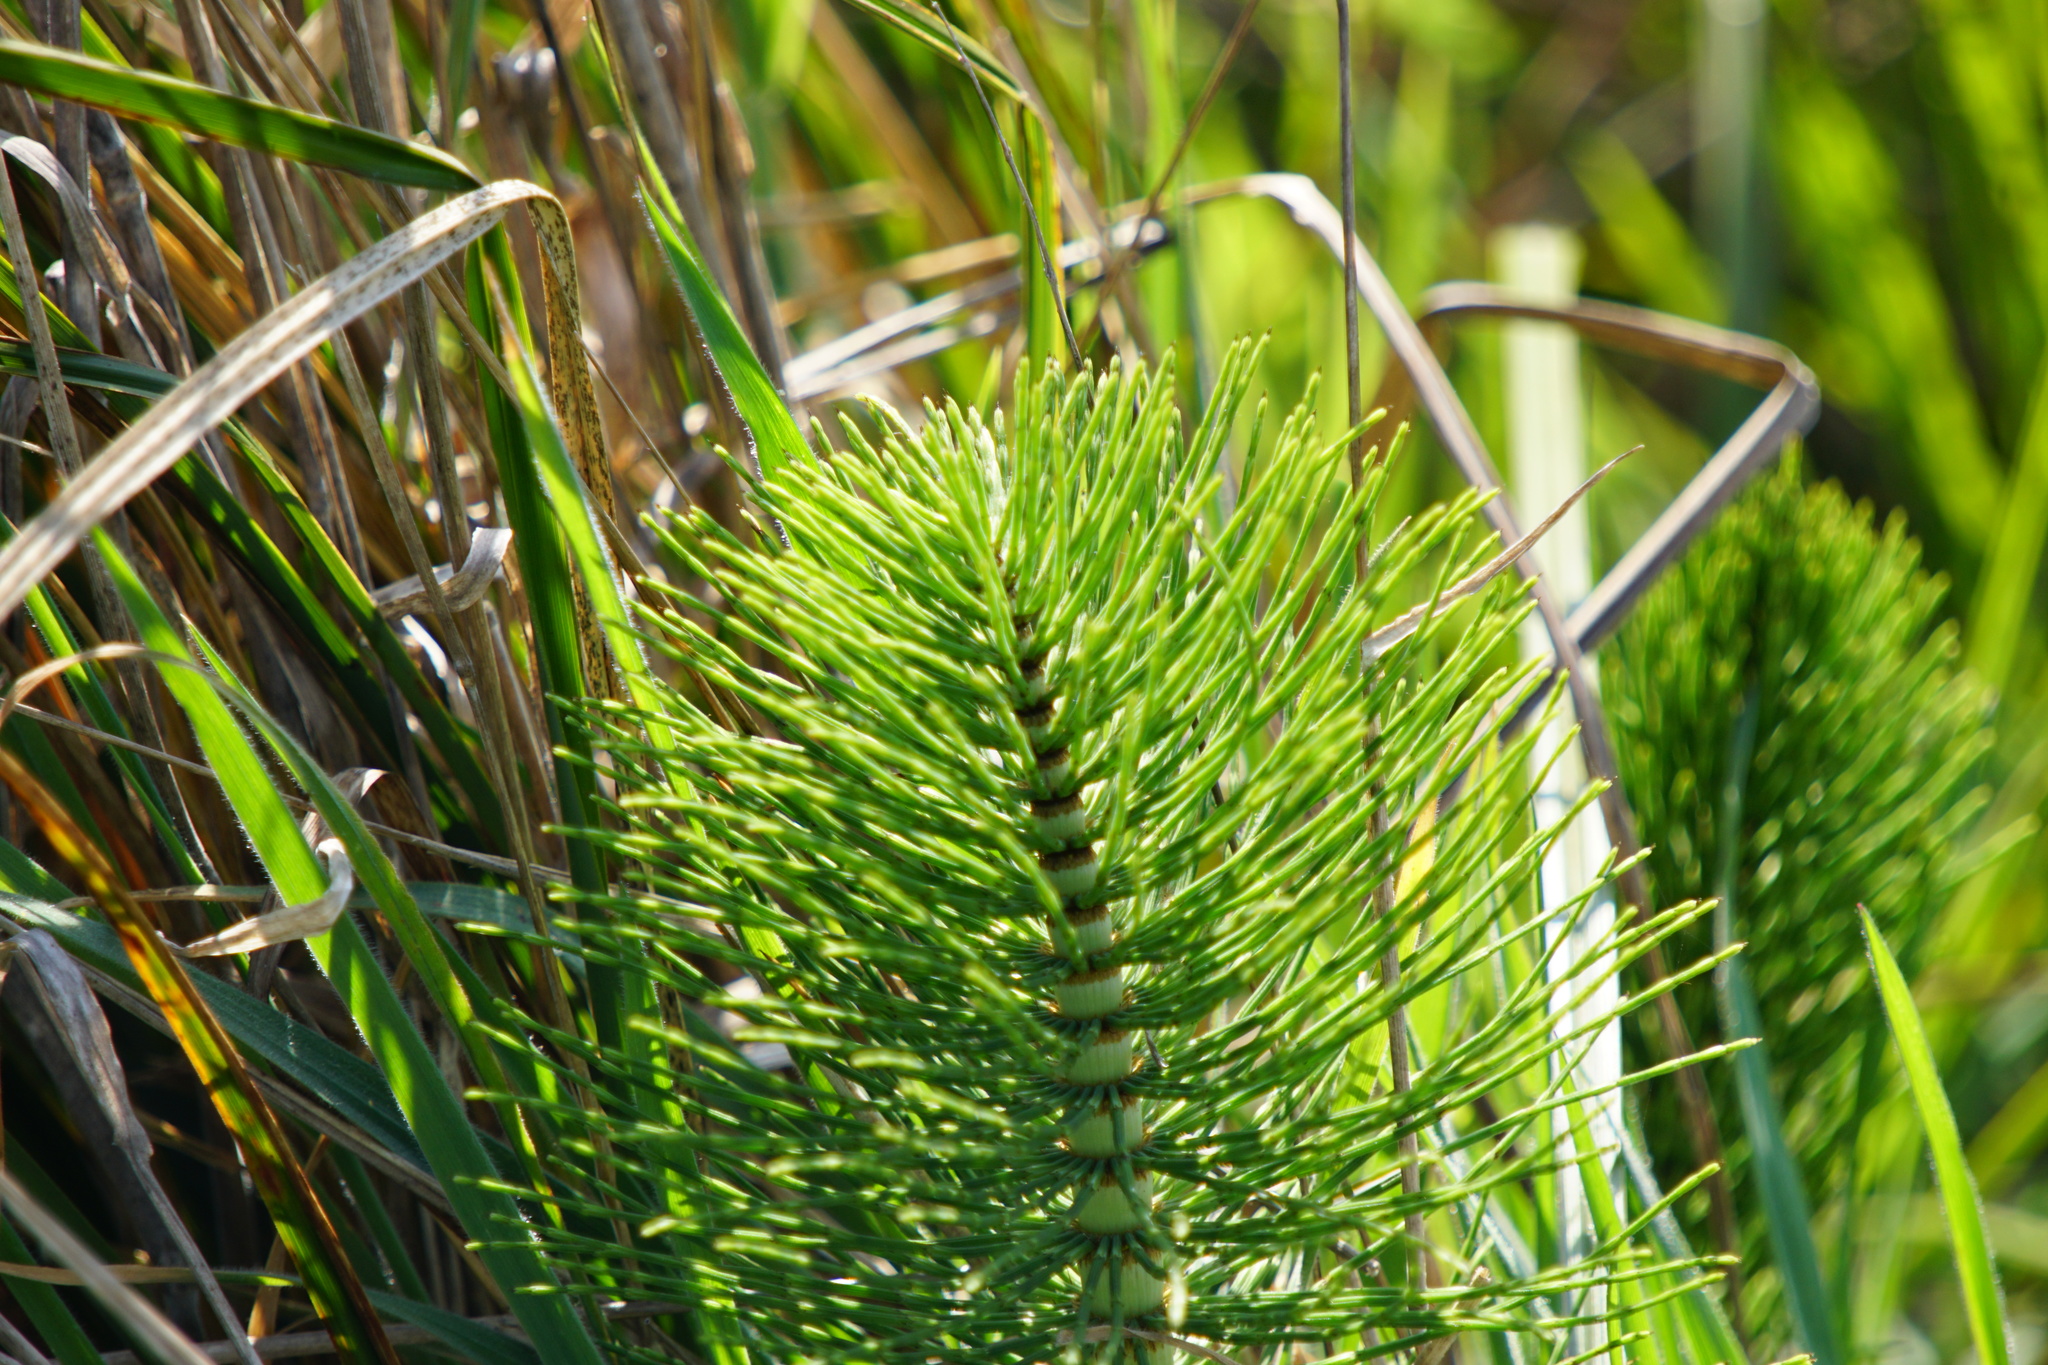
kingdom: Plantae
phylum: Tracheophyta
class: Polypodiopsida
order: Equisetales
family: Equisetaceae
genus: Equisetum
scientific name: Equisetum braunii
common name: Braun's horsetail
